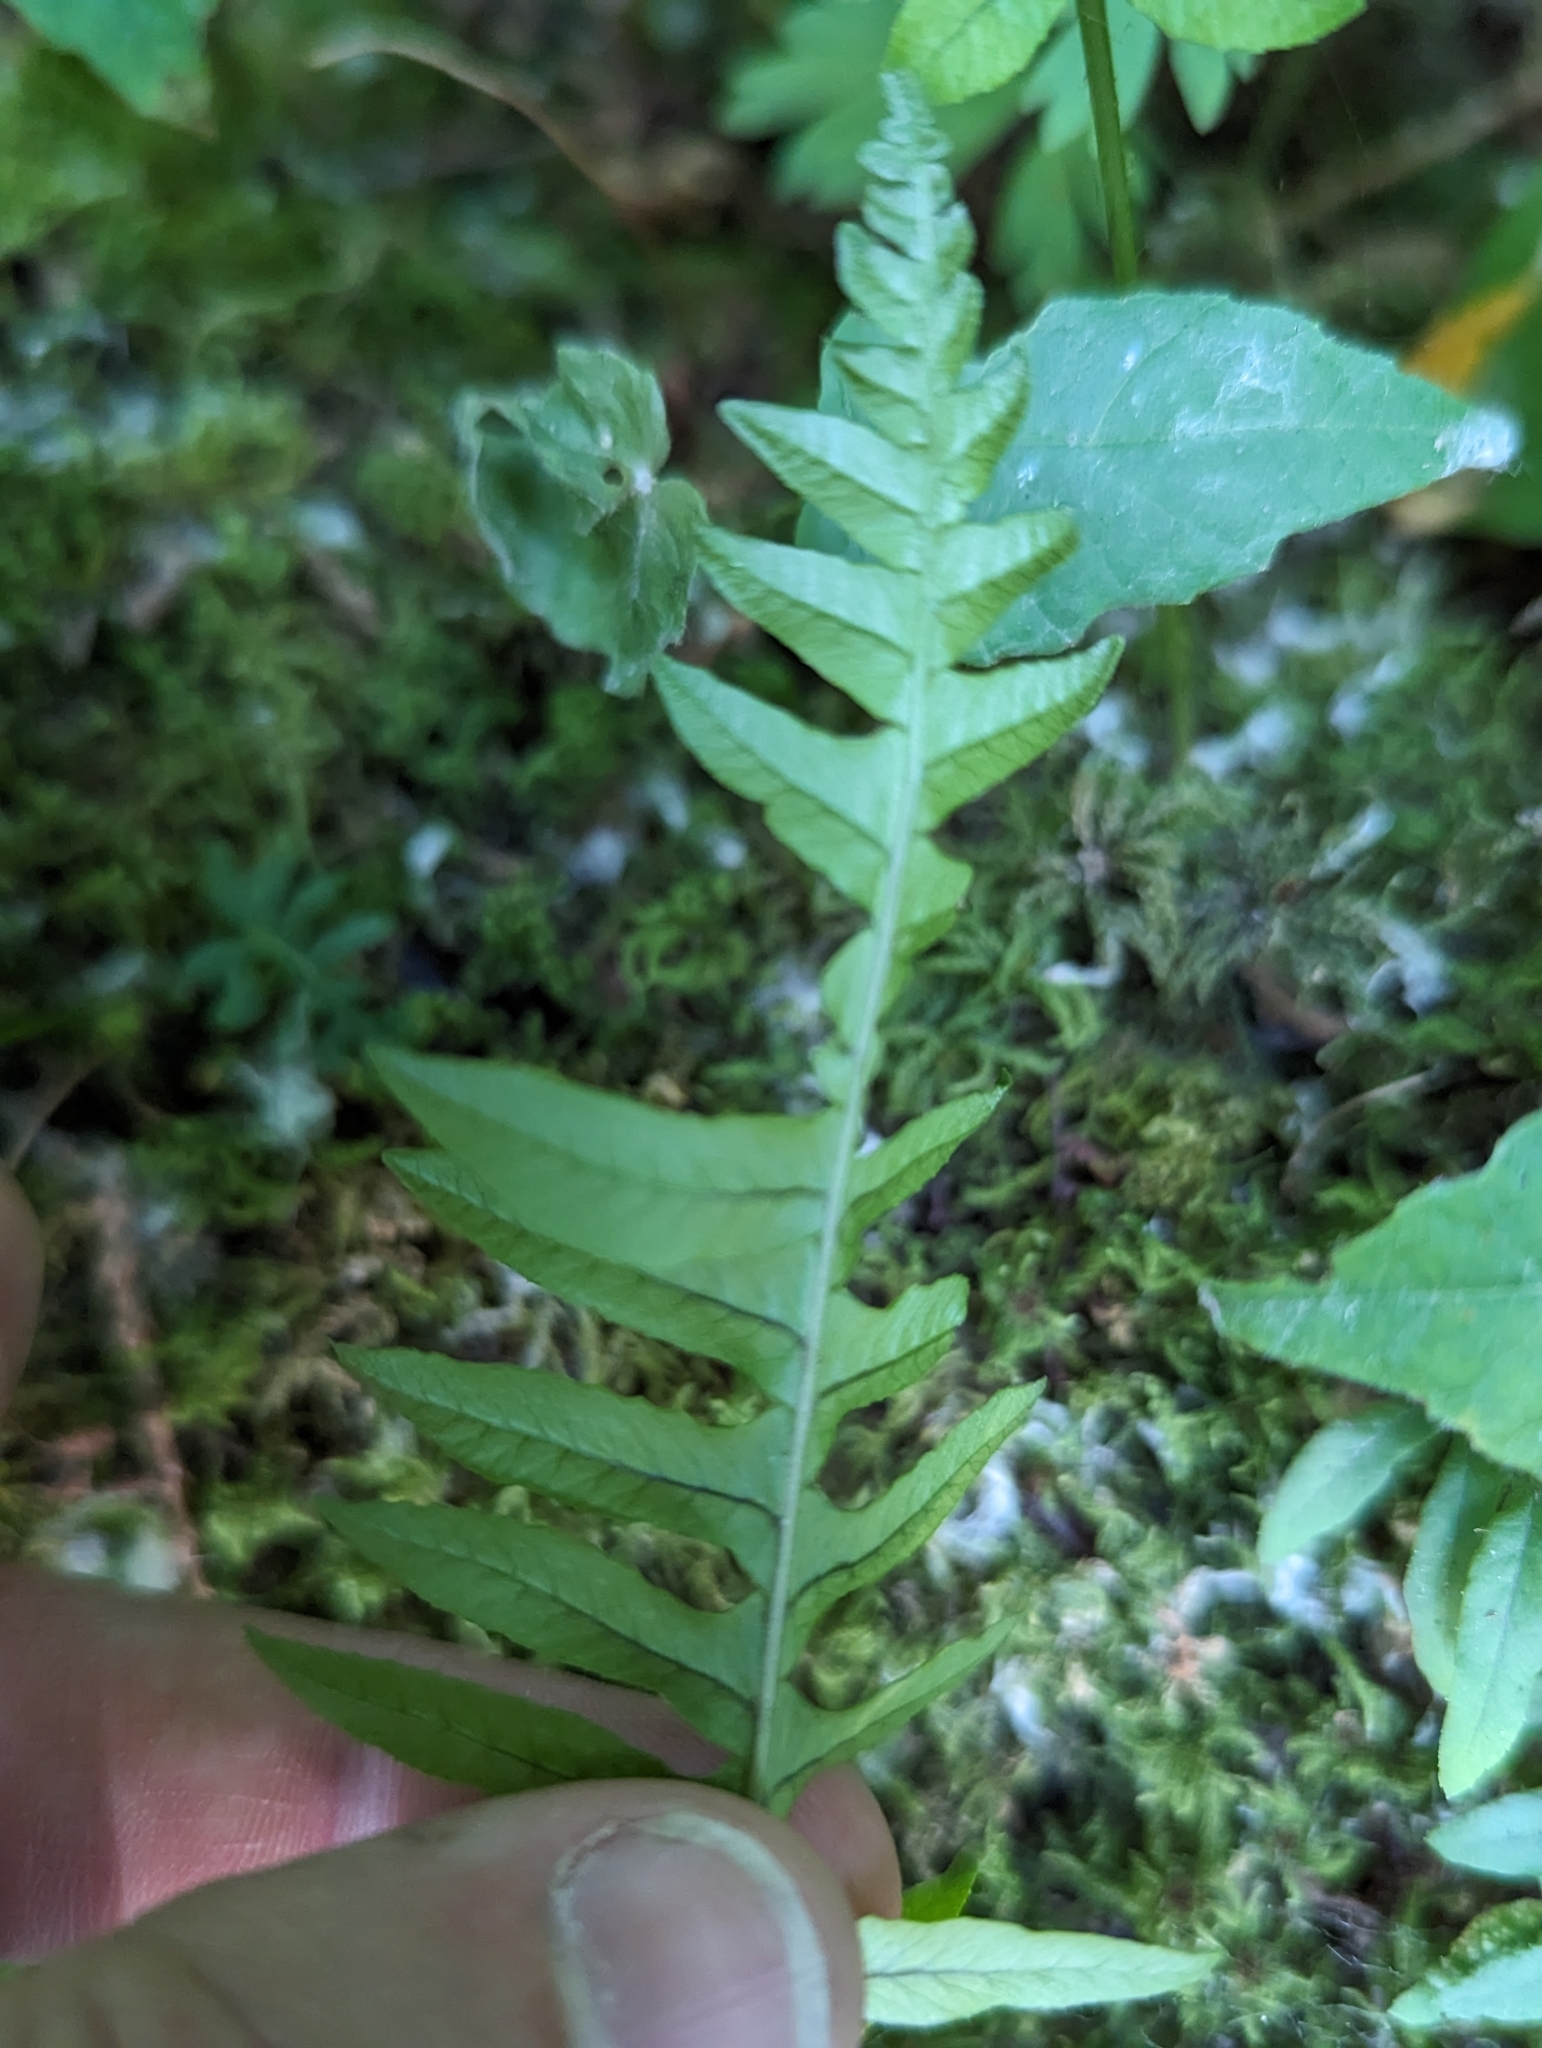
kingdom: Plantae
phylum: Tracheophyta
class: Polypodiopsida
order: Polypodiales
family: Polypodiaceae
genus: Polypodium
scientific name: Polypodium glycyrrhiza
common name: Licorice fern
